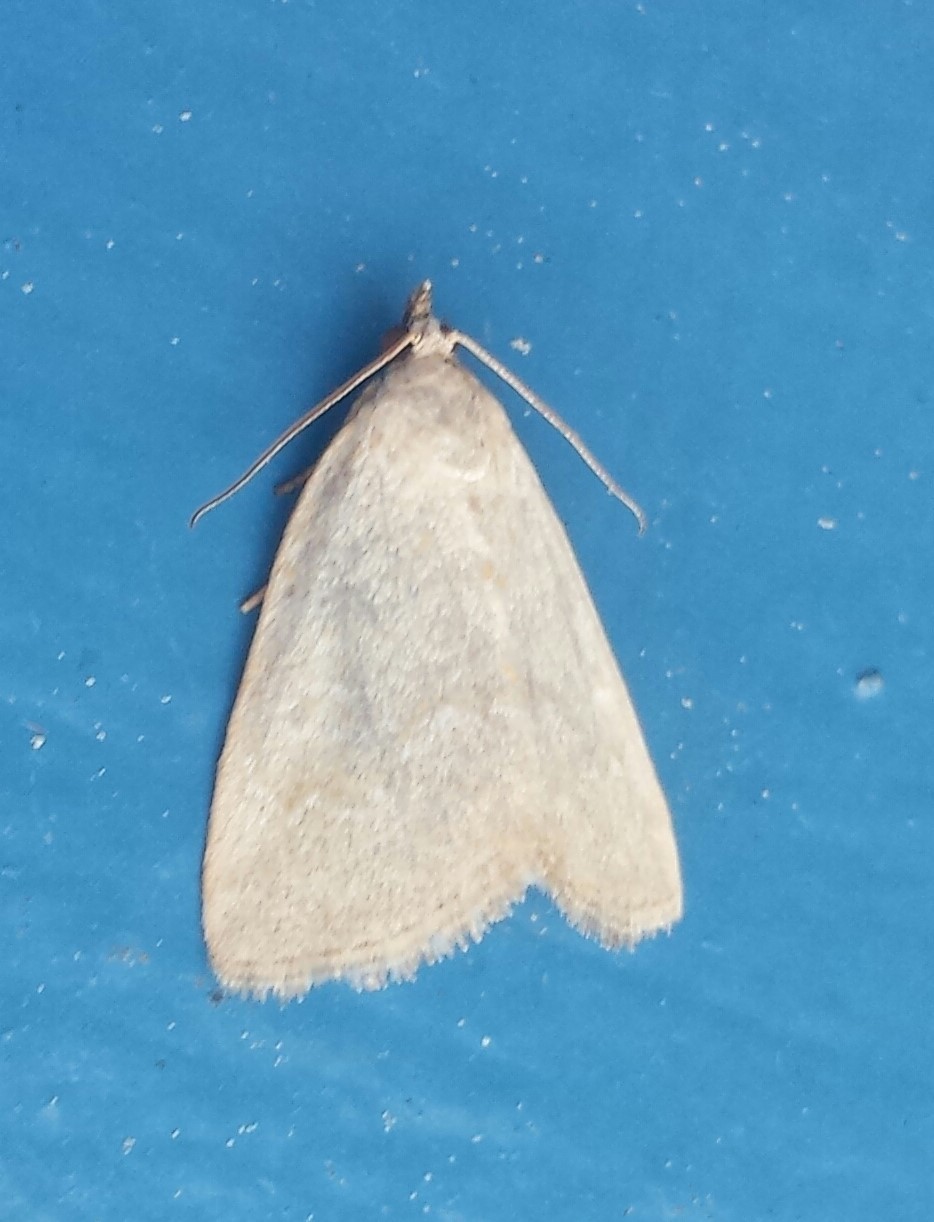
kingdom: Animalia
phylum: Arthropoda
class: Insecta
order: Lepidoptera
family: Noctuidae
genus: Protodeltote
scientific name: Protodeltote albidula
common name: Pale glyph
